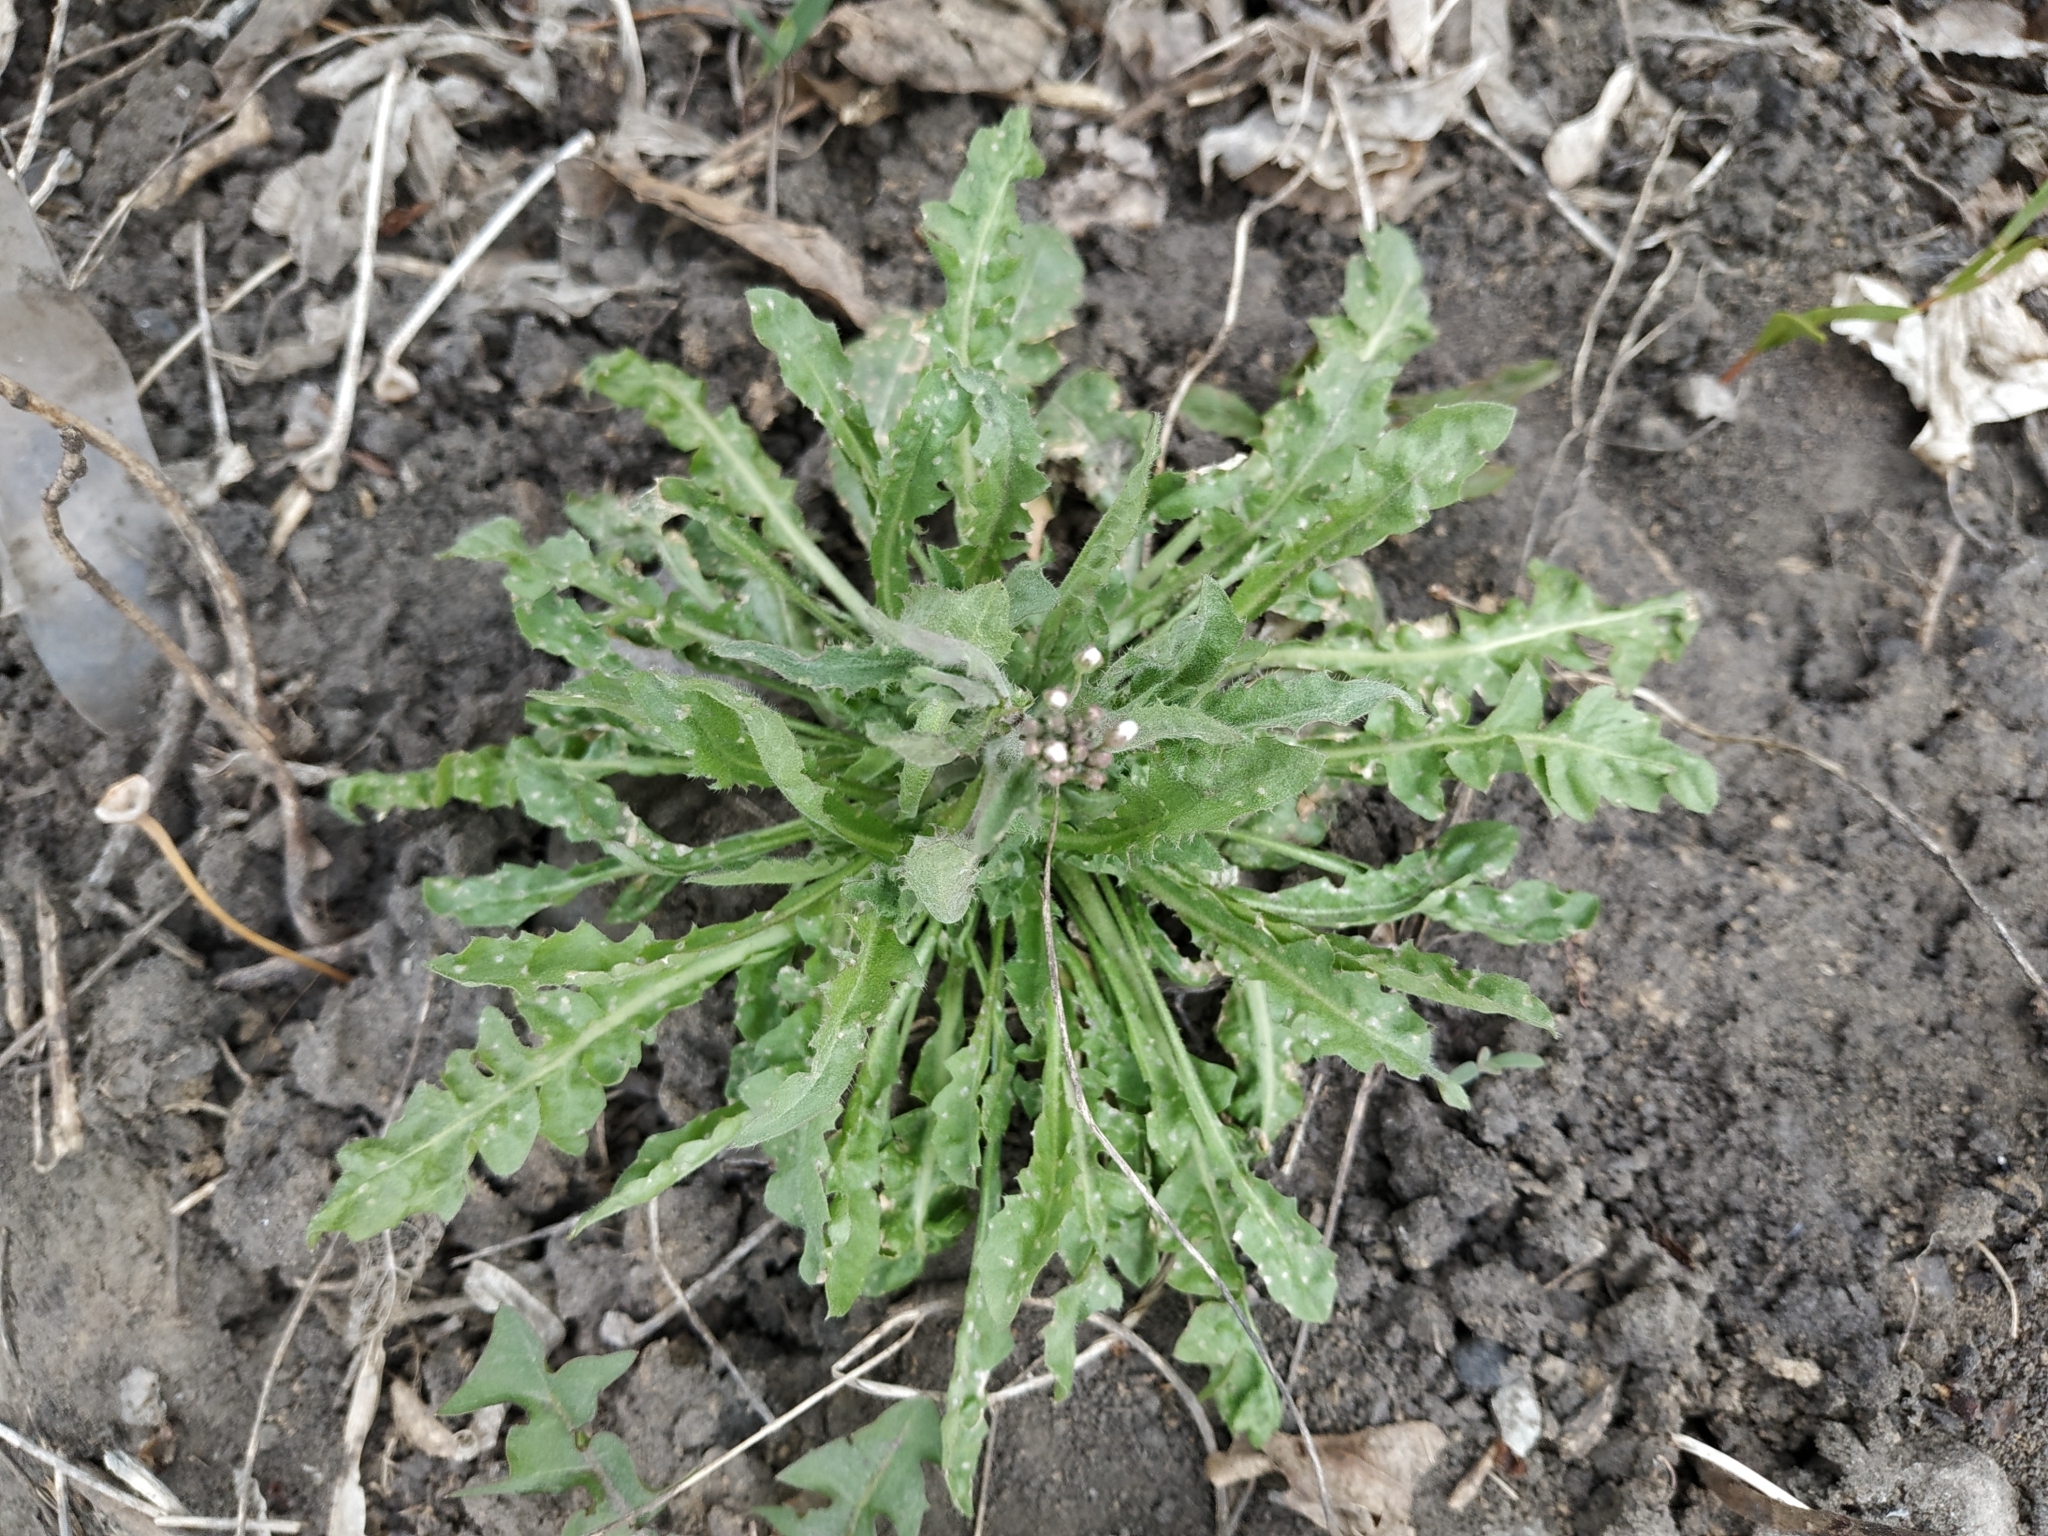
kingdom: Plantae
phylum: Tracheophyta
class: Magnoliopsida
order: Brassicales
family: Brassicaceae
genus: Capsella
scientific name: Capsella bursa-pastoris
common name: Shepherd's purse
